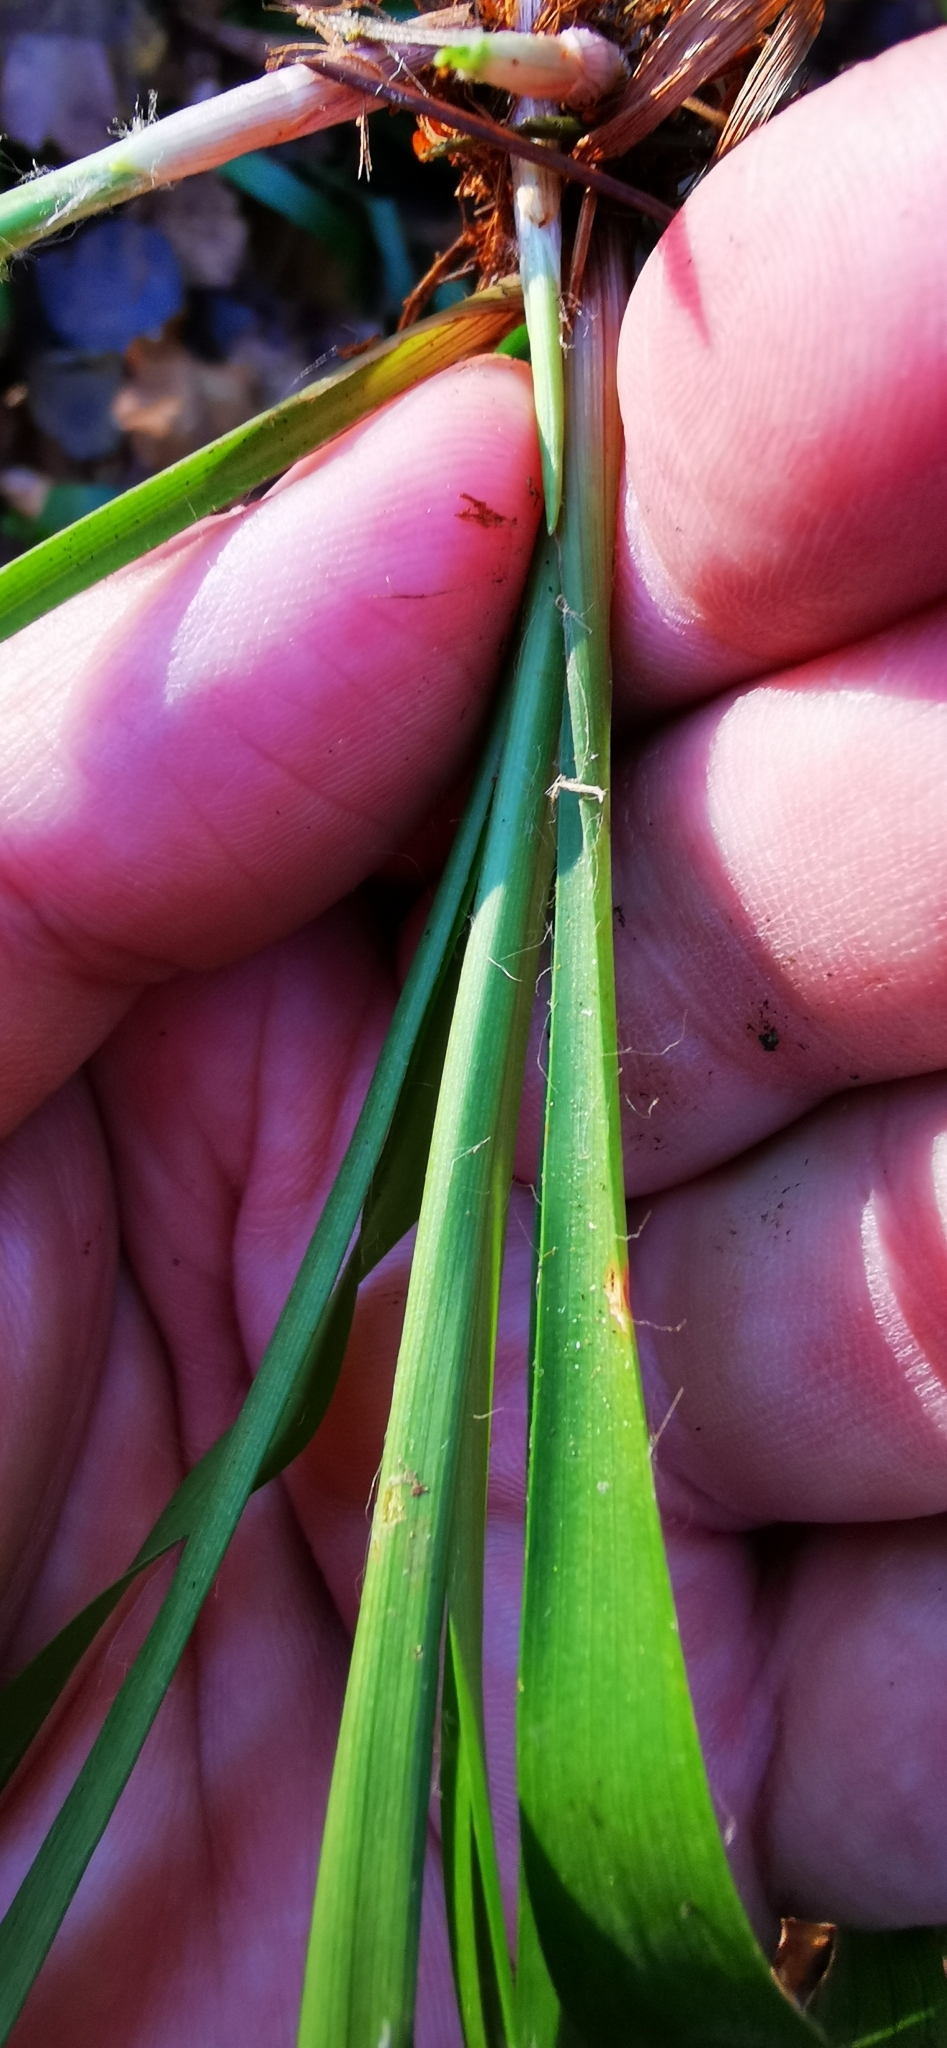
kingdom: Plantae
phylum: Tracheophyta
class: Liliopsida
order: Poales
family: Juncaceae
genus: Luzula
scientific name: Luzula pilosa
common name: Hairy wood-rush
